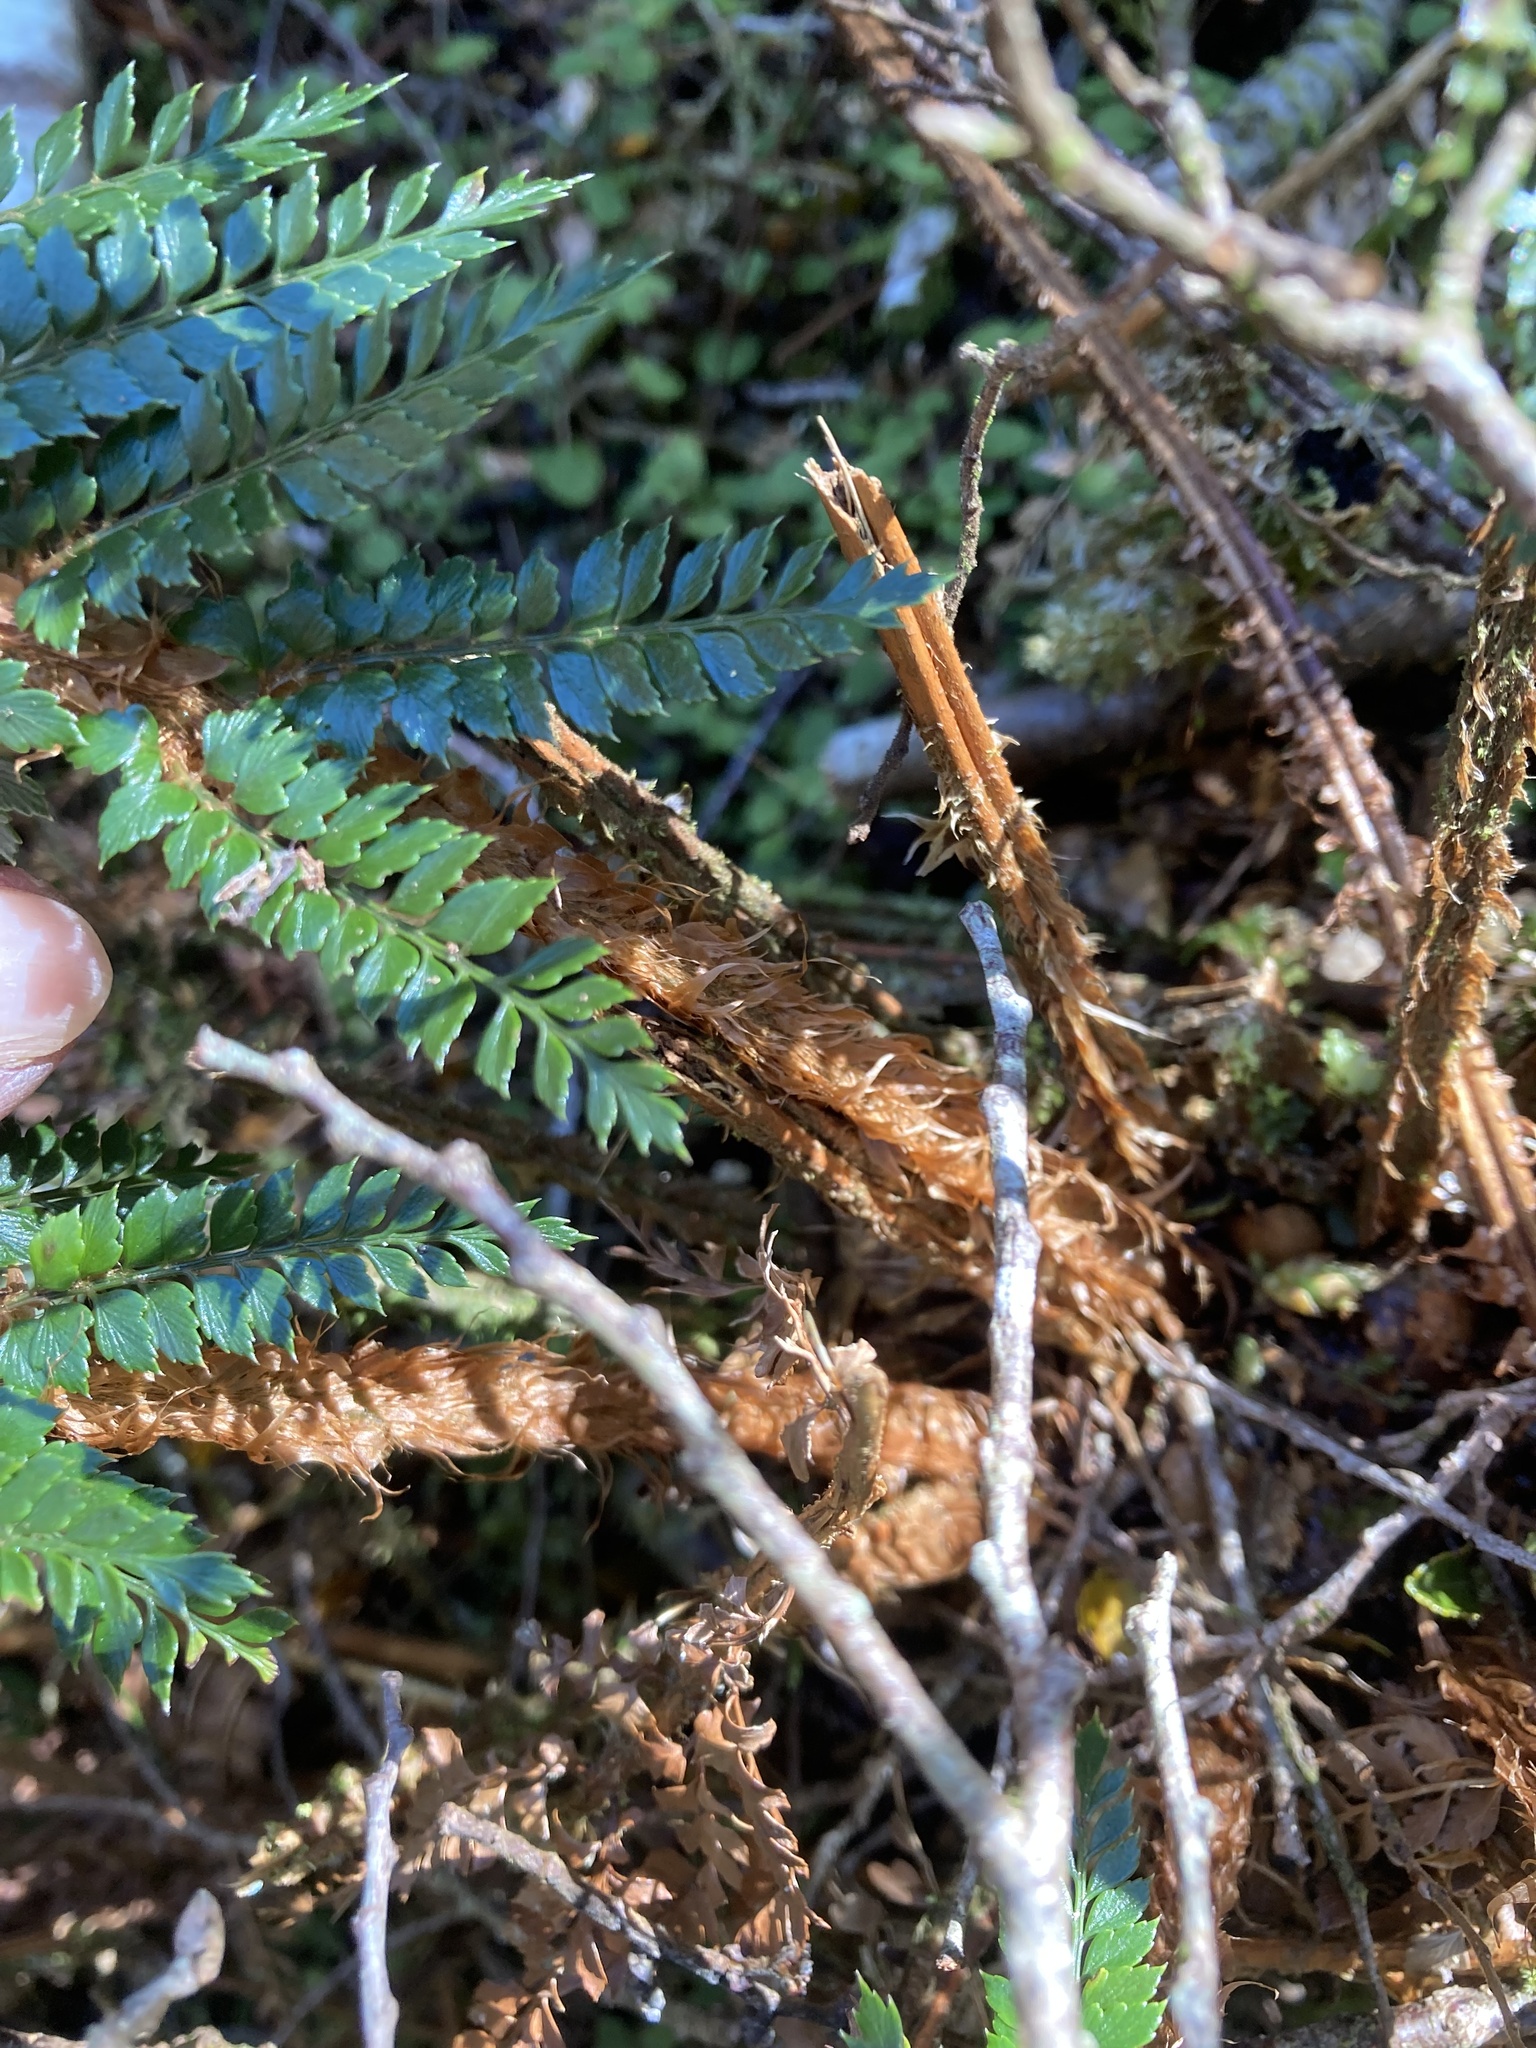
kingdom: Plantae
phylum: Tracheophyta
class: Polypodiopsida
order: Polypodiales
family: Dryopteridaceae
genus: Polystichum
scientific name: Polystichum vestitum
